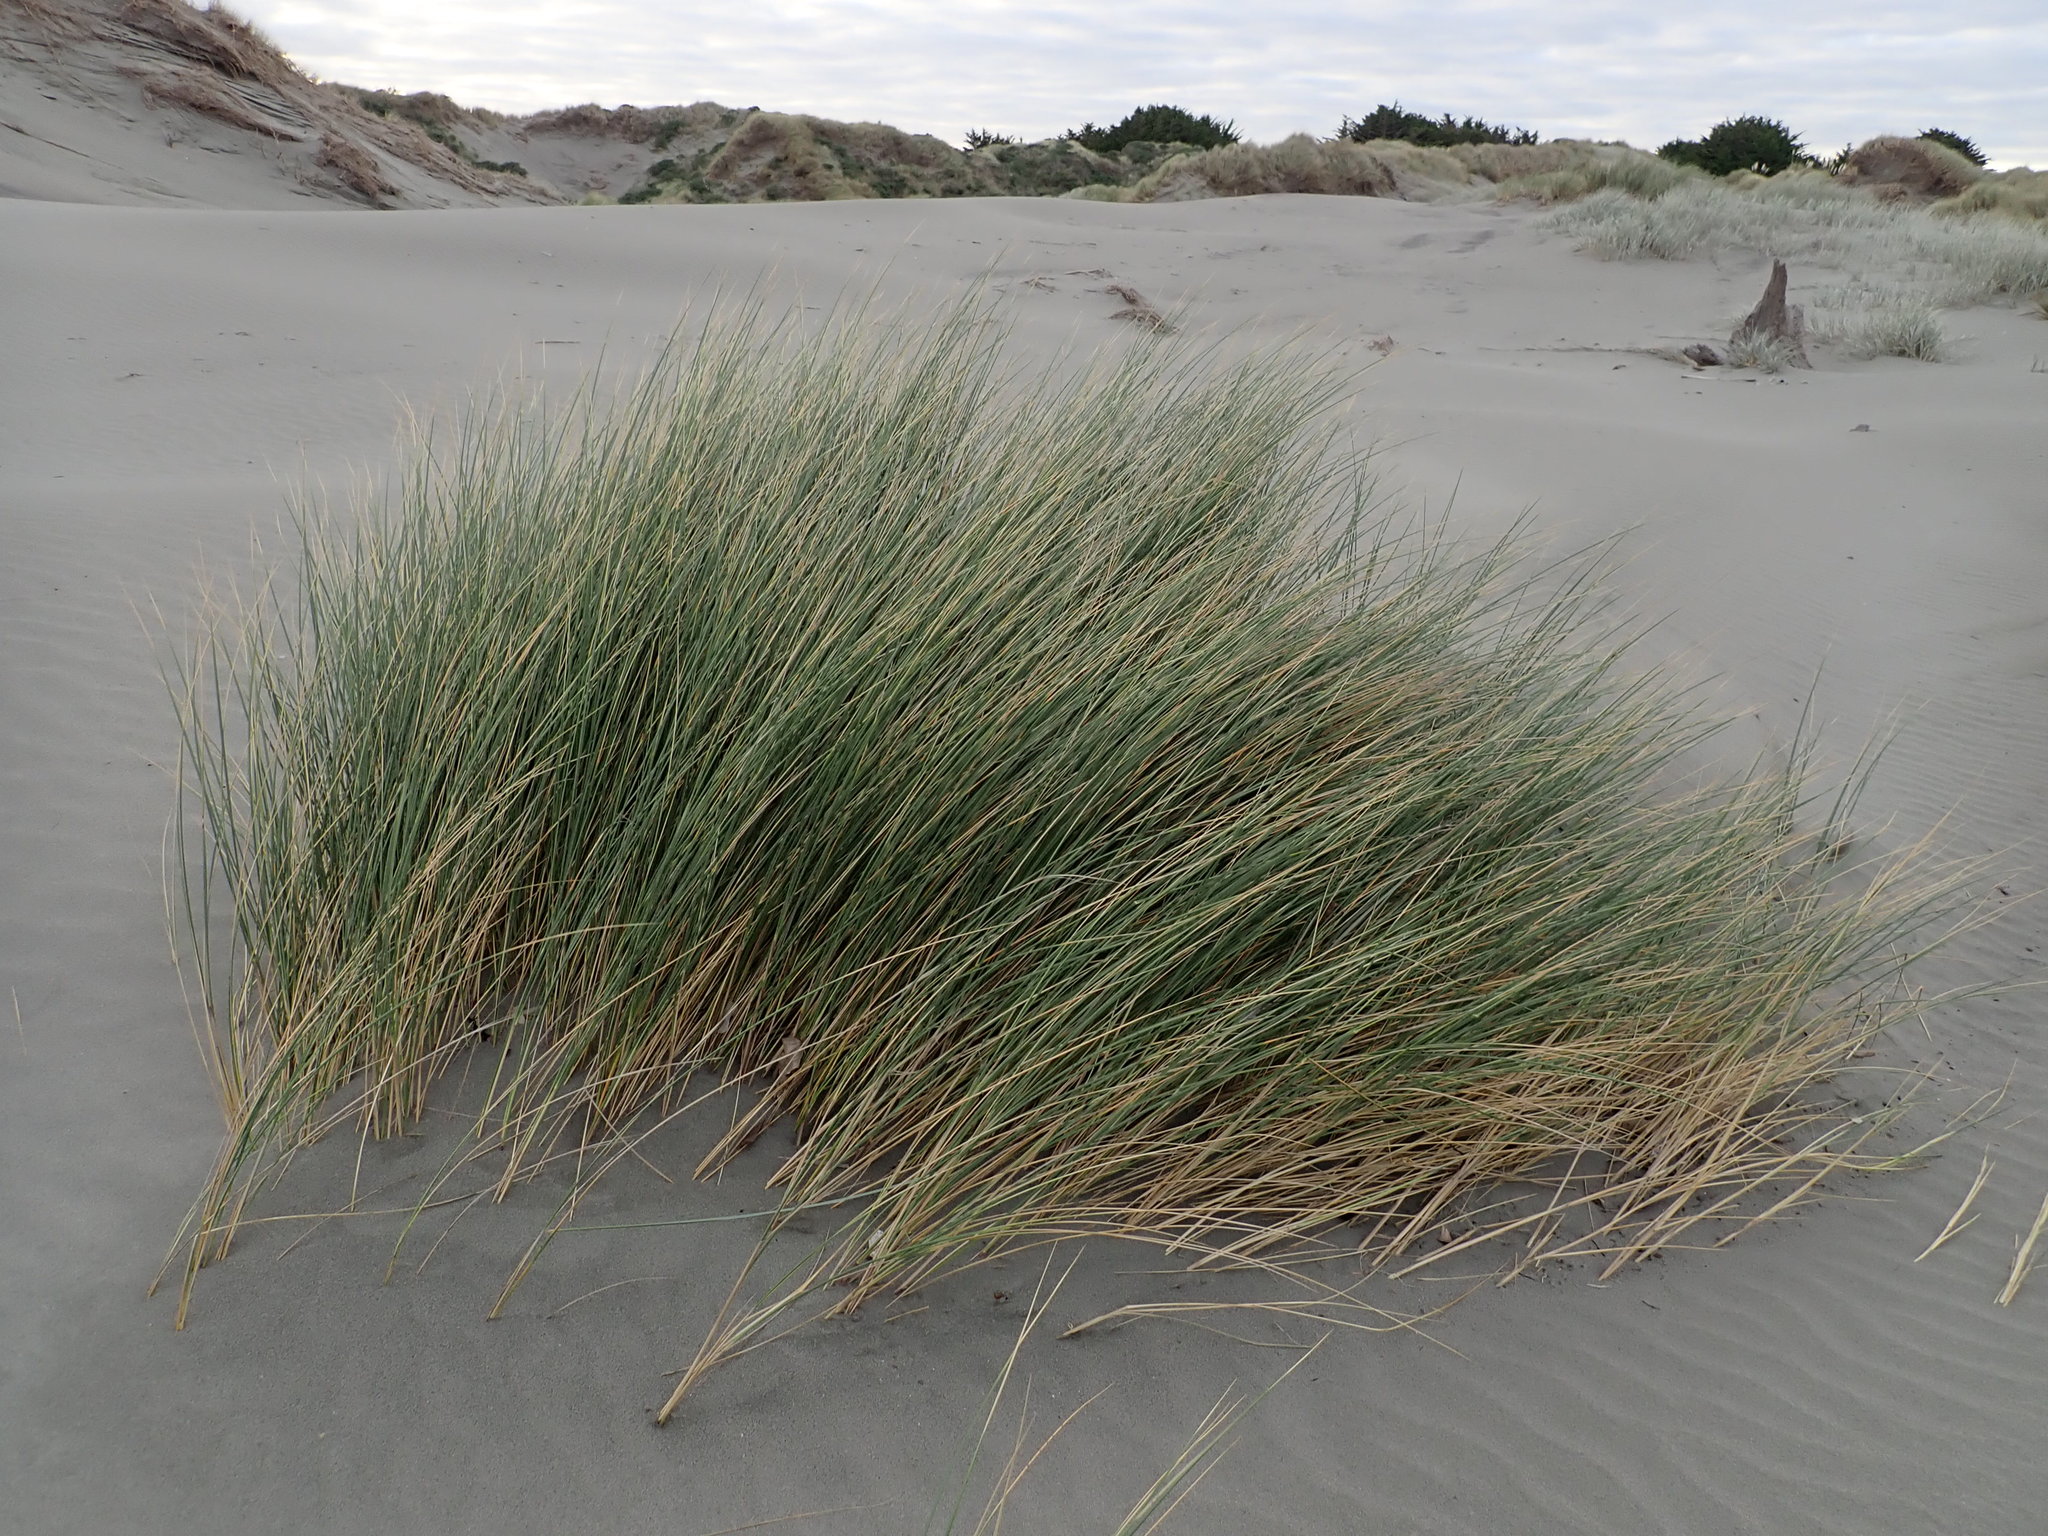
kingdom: Plantae
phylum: Tracheophyta
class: Liliopsida
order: Poales
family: Poaceae
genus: Calamagrostis
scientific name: Calamagrostis arenaria
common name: European beachgrass
